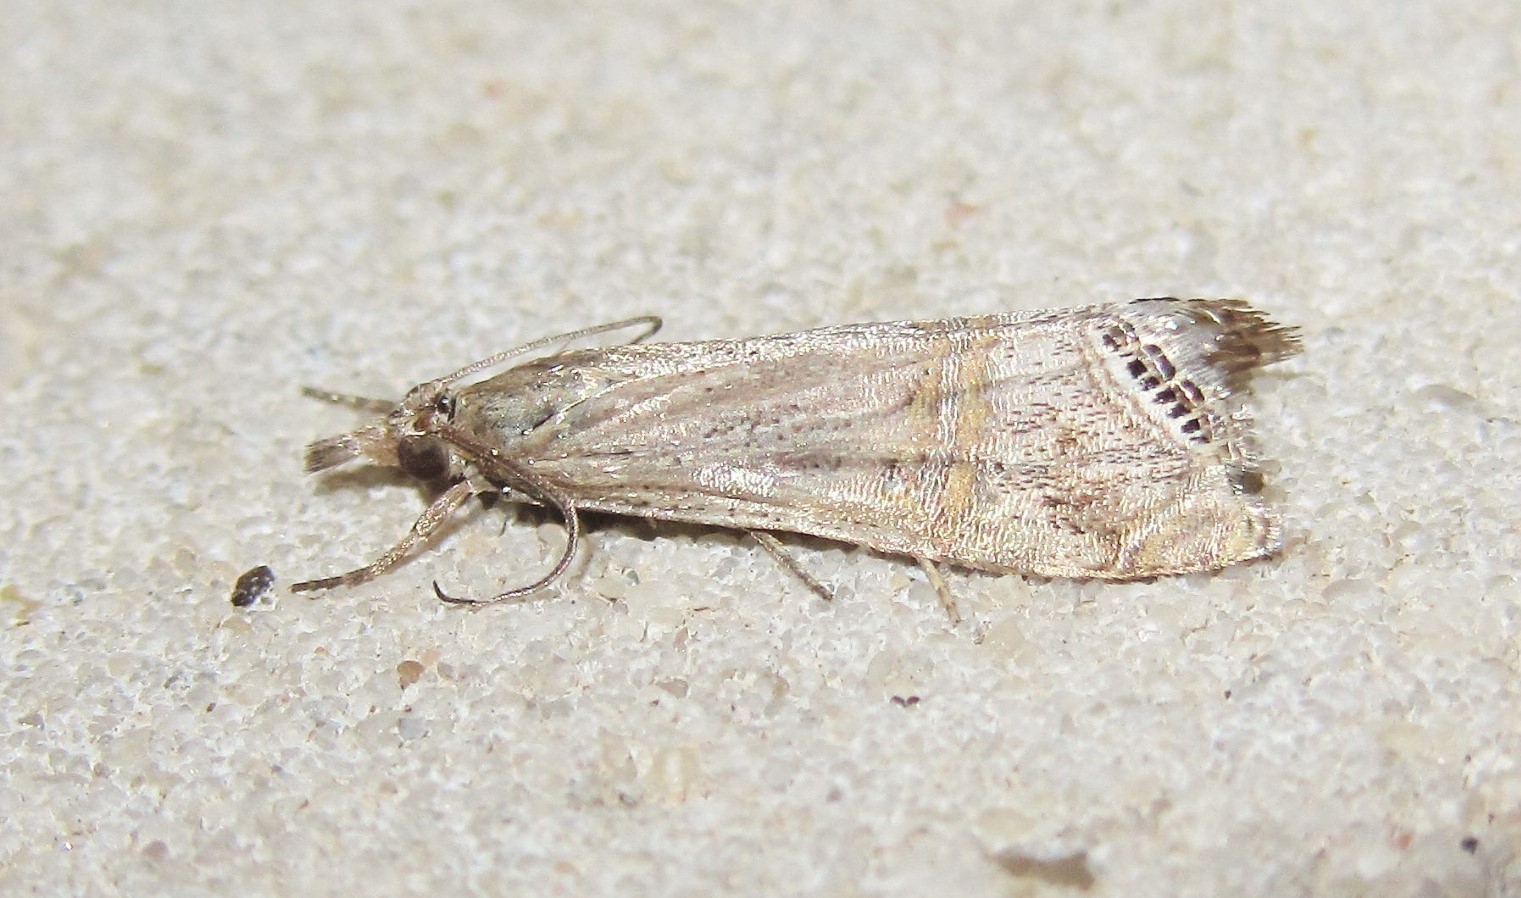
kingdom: Animalia
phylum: Arthropoda
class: Insecta
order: Lepidoptera
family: Crambidae
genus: Euchromius
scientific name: Euchromius ocellea
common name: Necklace veneer moth
